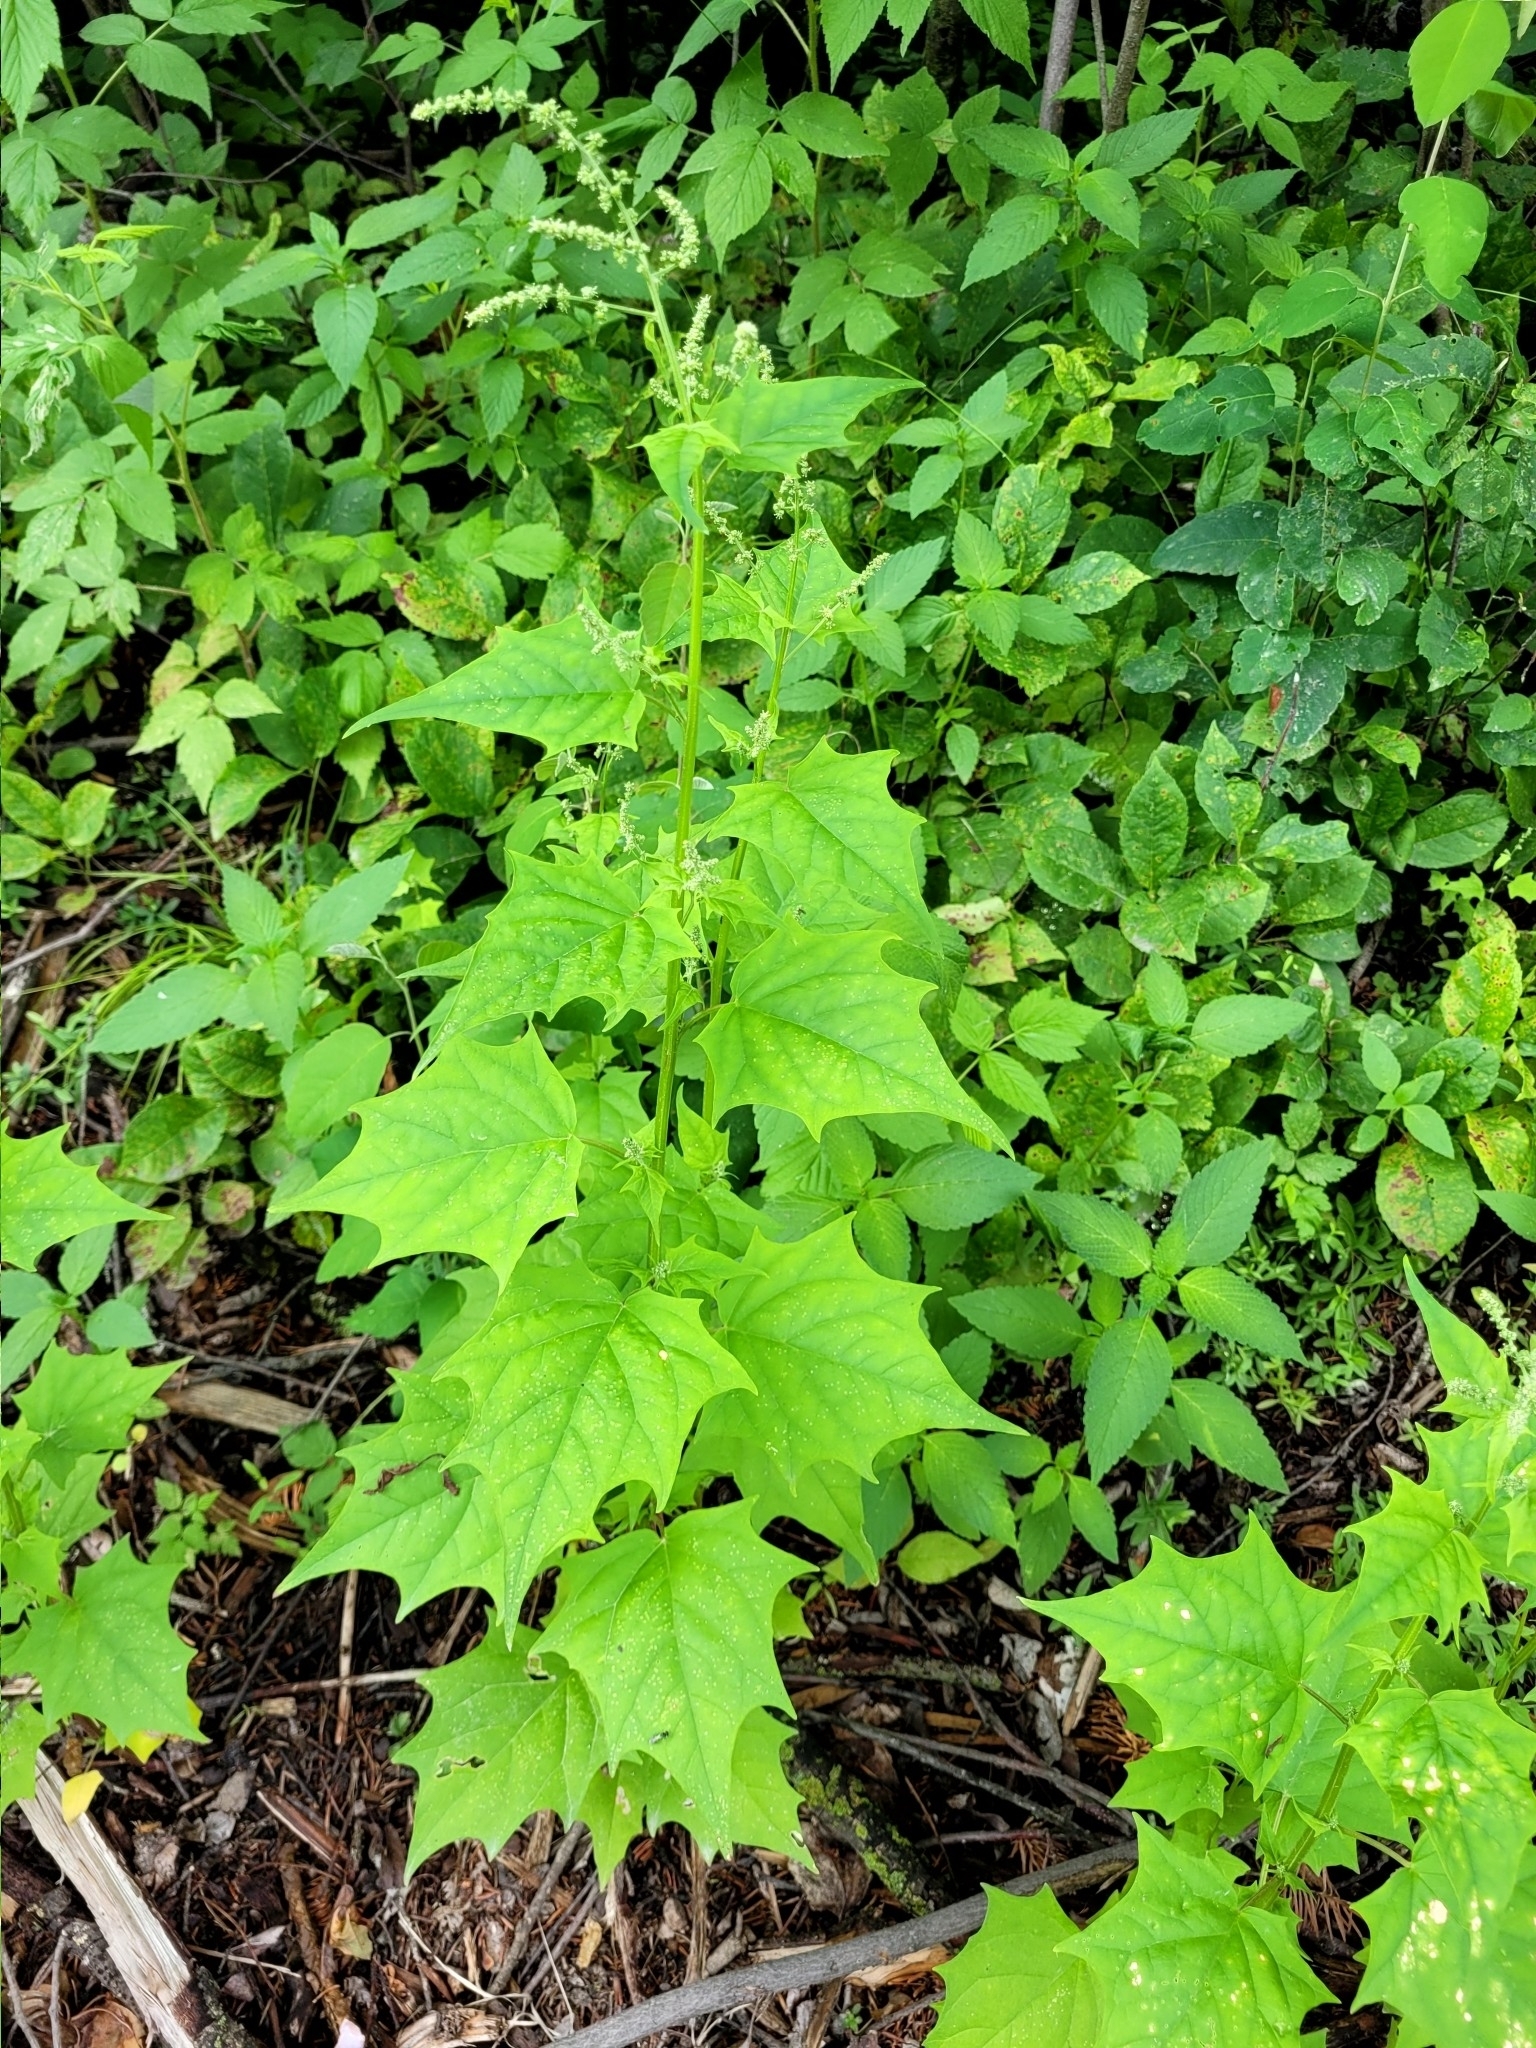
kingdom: Plantae
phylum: Tracheophyta
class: Magnoliopsida
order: Caryophyllales
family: Amaranthaceae
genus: Chenopodiastrum
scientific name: Chenopodiastrum simplex
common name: Large-seed goosefoot
